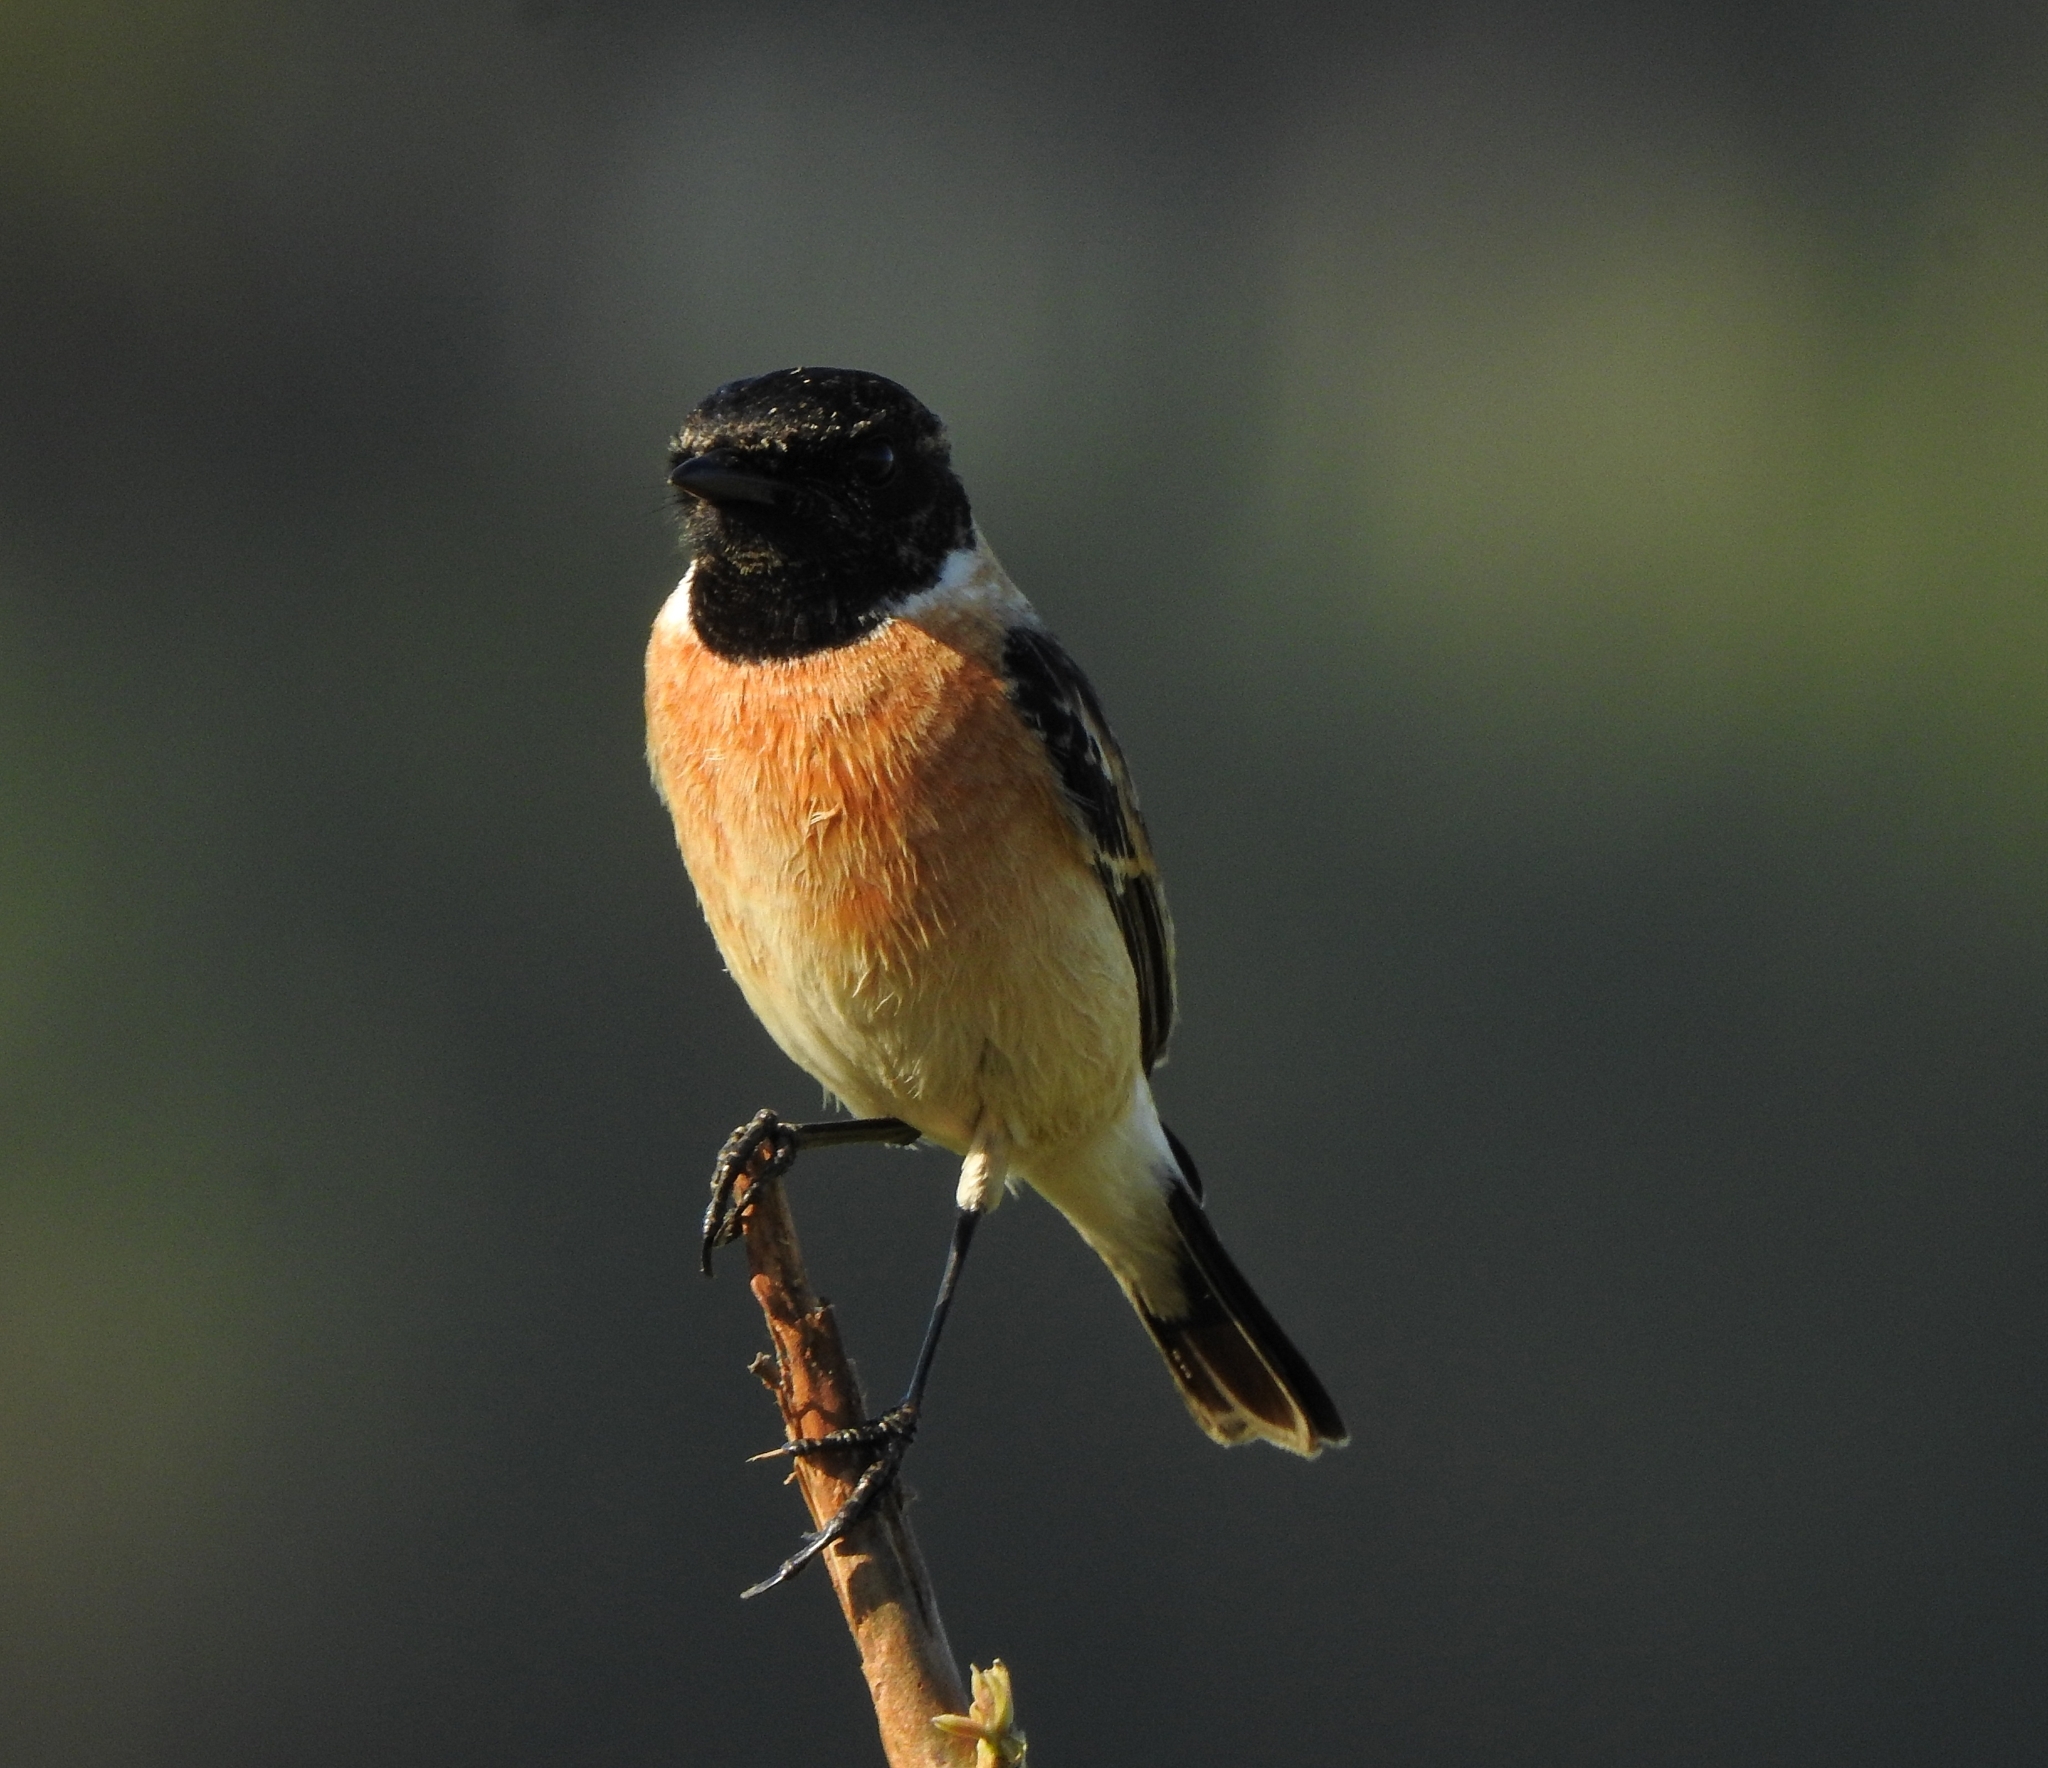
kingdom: Animalia
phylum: Chordata
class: Aves
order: Passeriformes
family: Muscicapidae
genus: Saxicola
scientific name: Saxicola maurus
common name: Siberian stonechat
